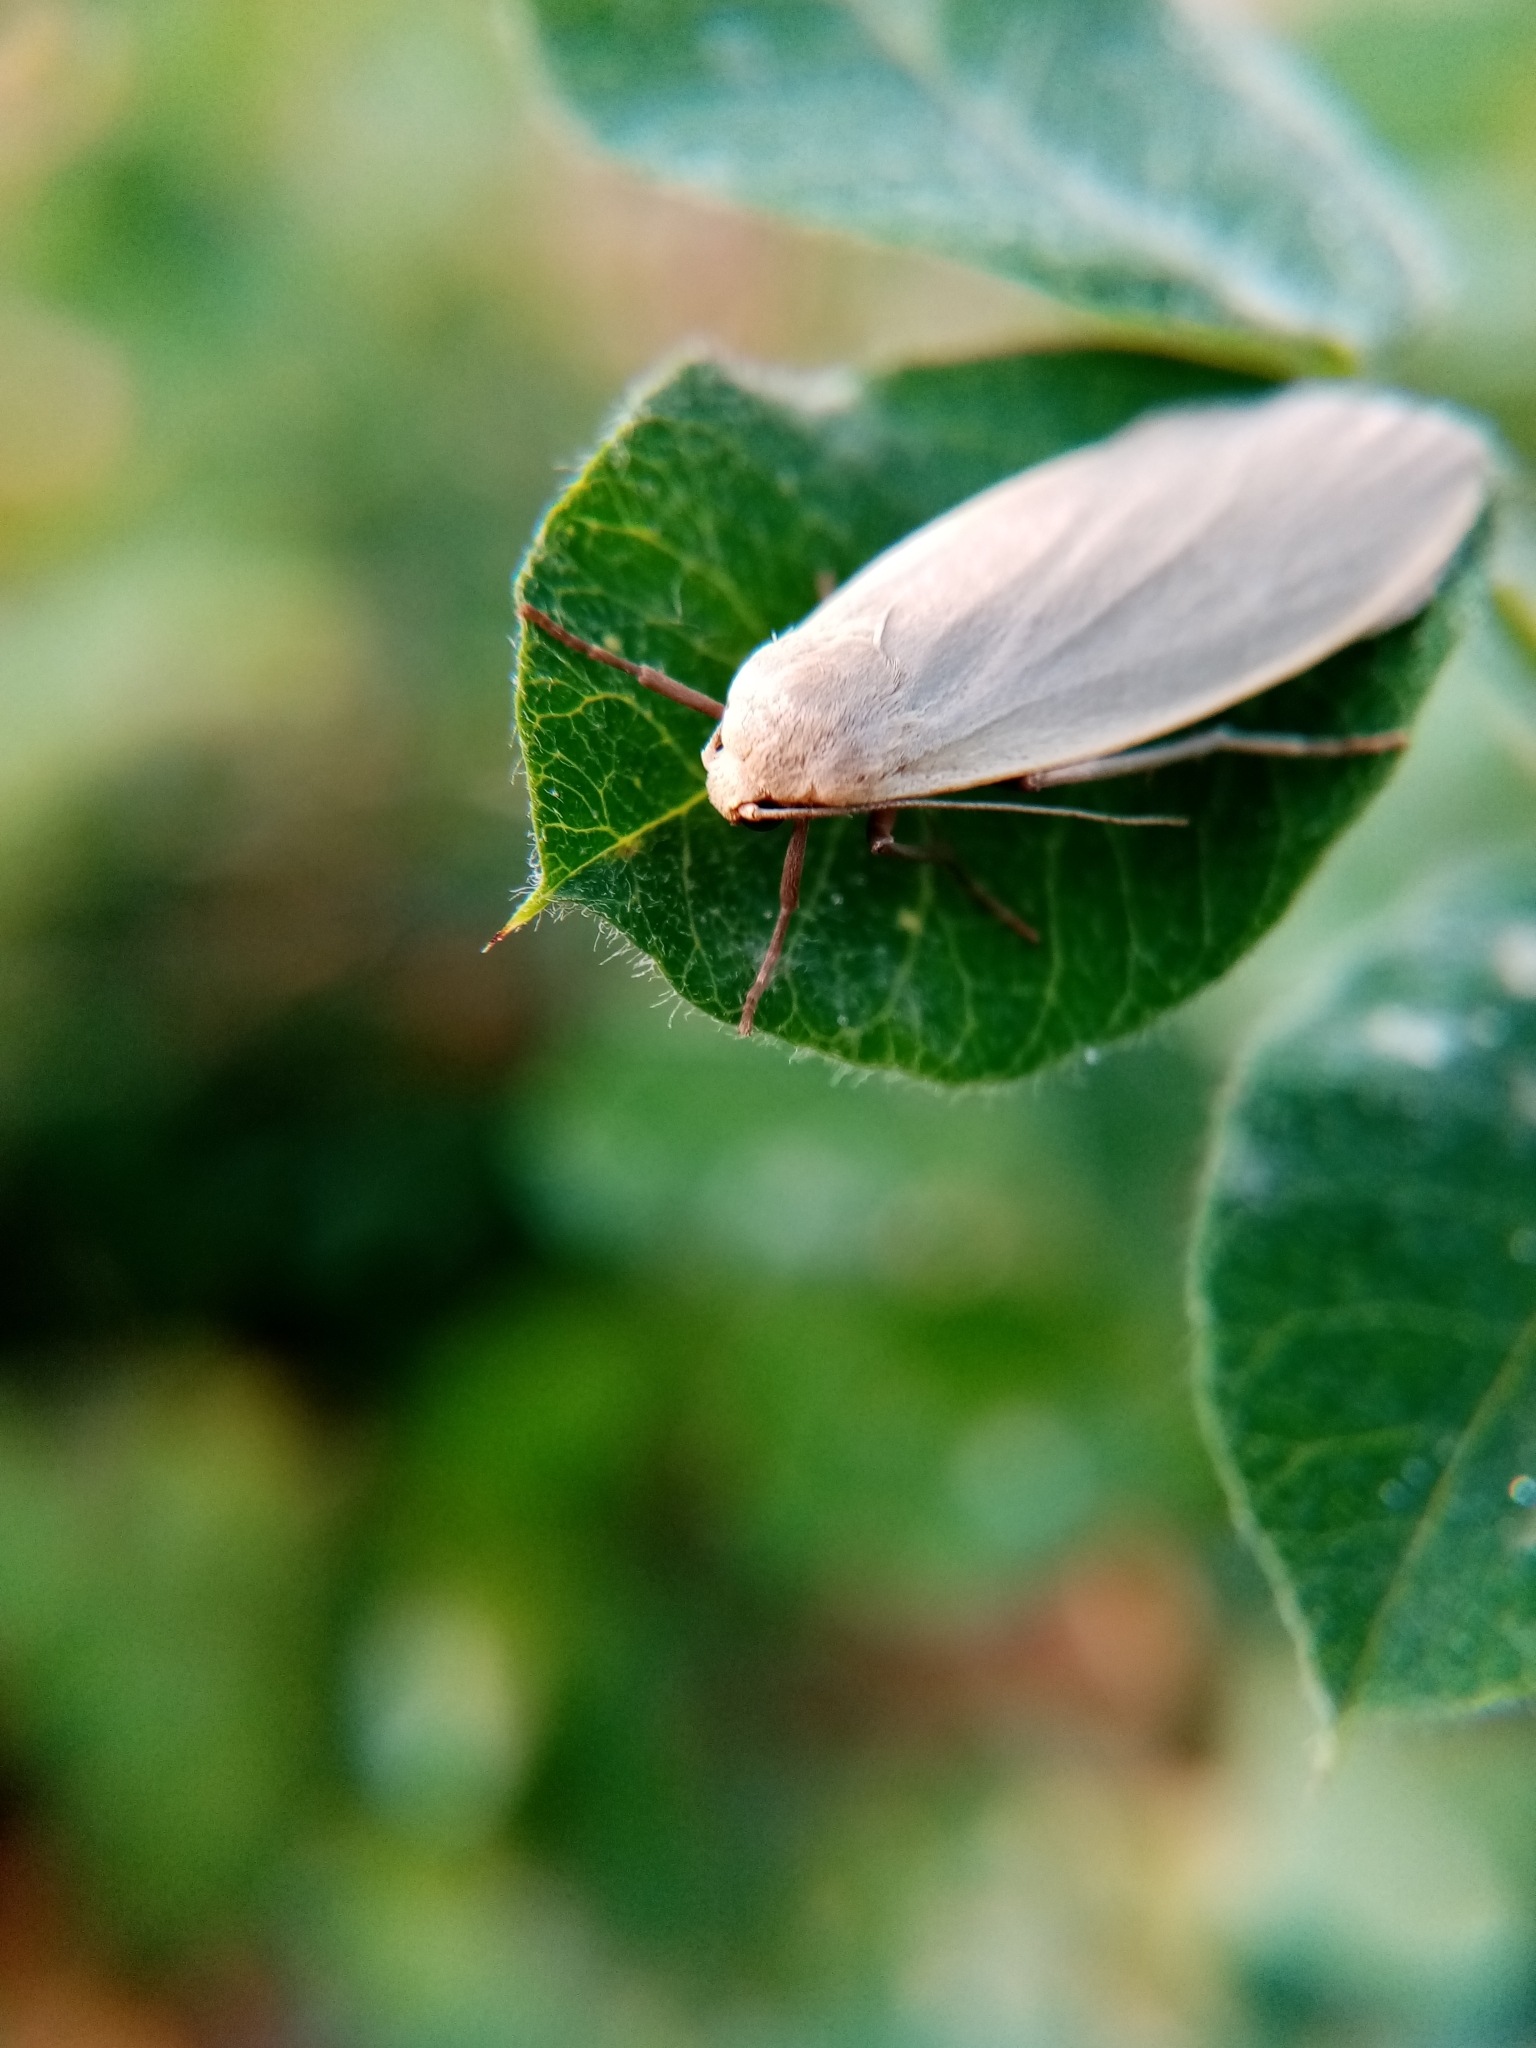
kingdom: Animalia
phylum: Arthropoda
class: Insecta
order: Lepidoptera
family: Erebidae
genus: Collita
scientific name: Collita griseola
